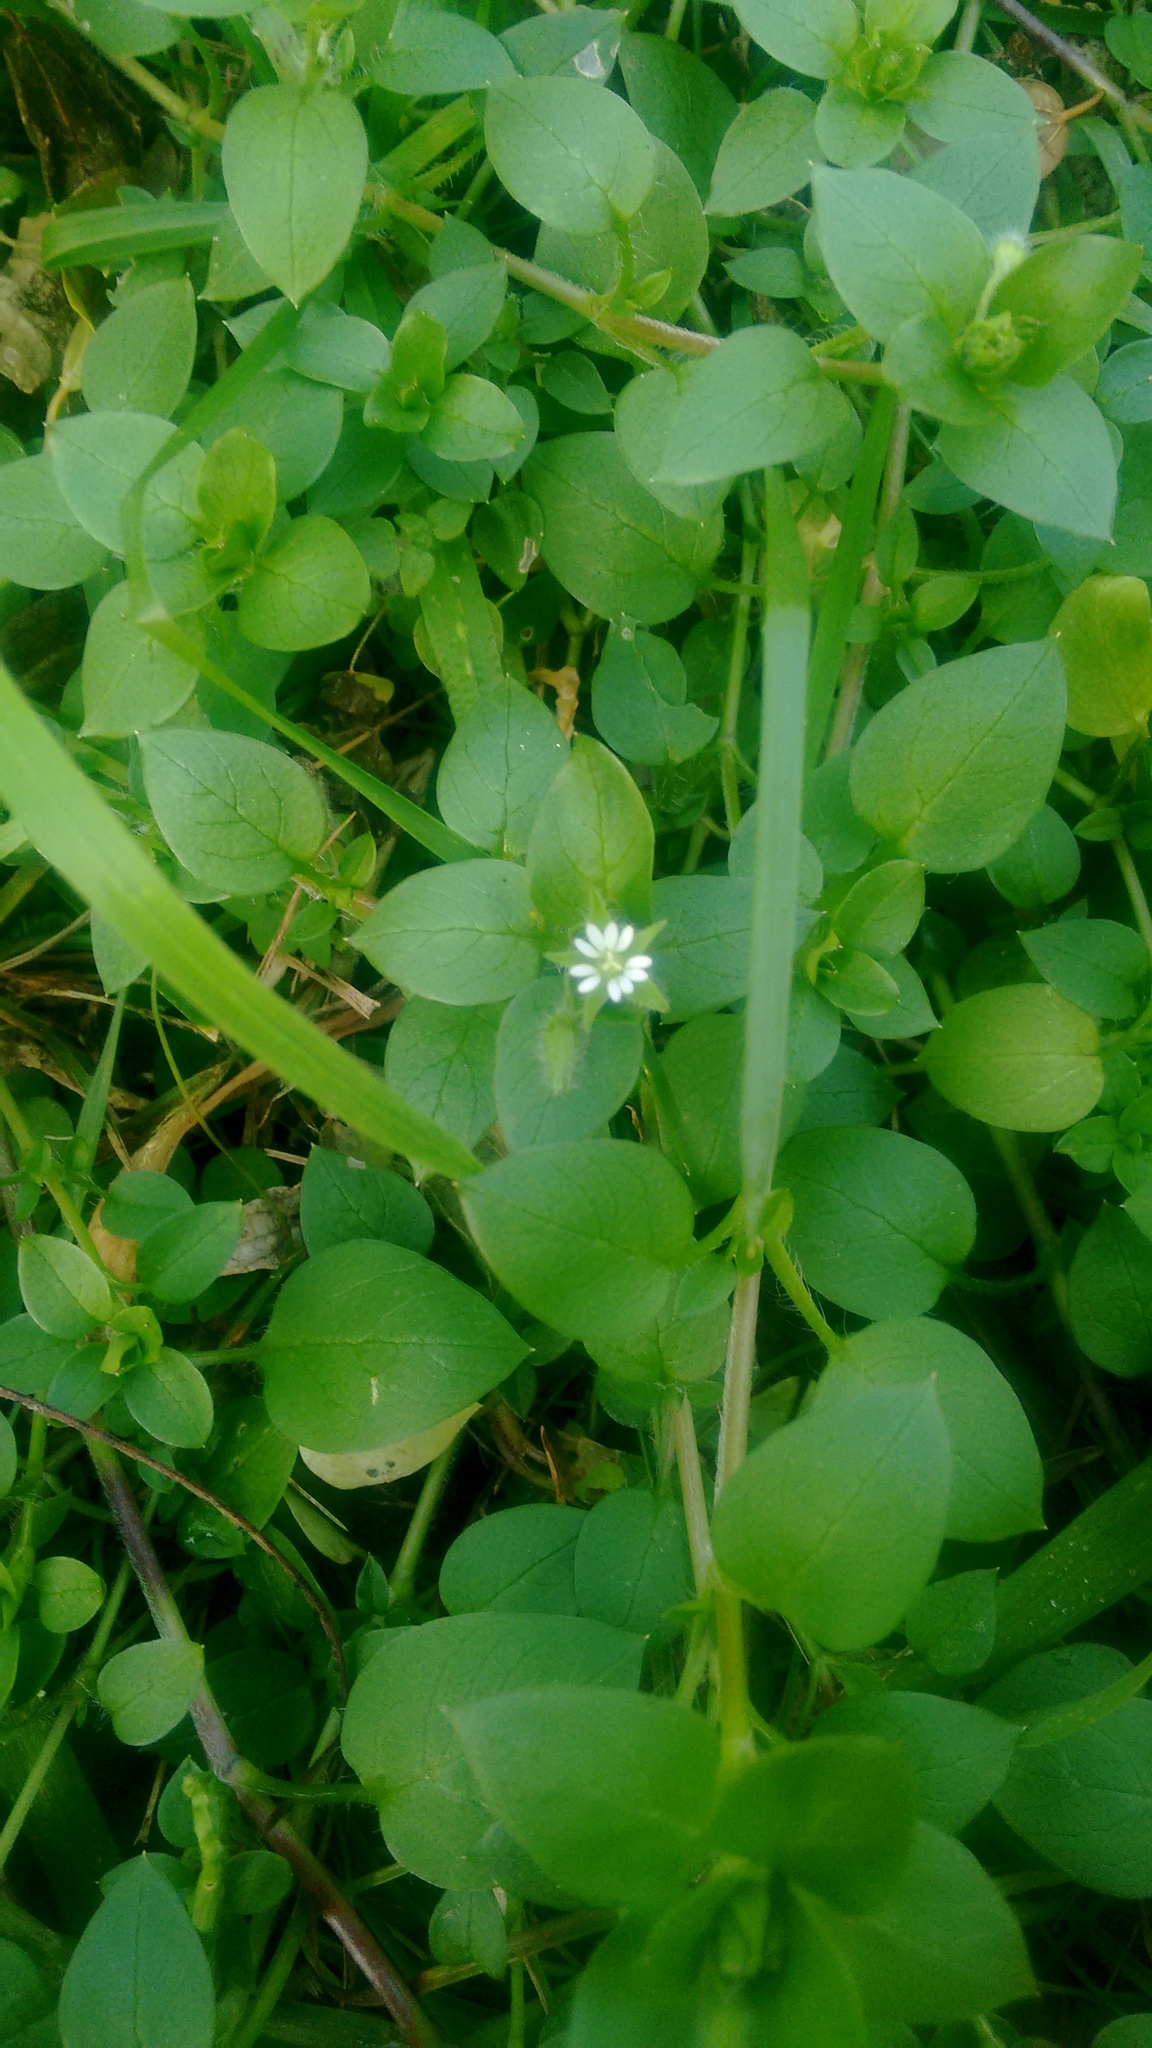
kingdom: Plantae
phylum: Tracheophyta
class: Magnoliopsida
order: Caryophyllales
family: Caryophyllaceae
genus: Stellaria
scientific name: Stellaria media
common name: Common chickweed
